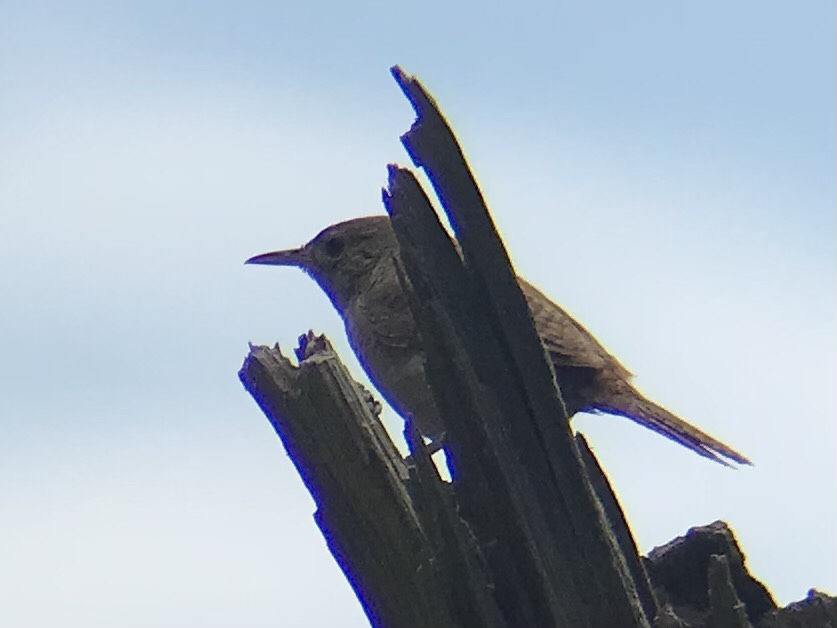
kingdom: Animalia
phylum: Chordata
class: Aves
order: Passeriformes
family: Troglodytidae
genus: Troglodytes
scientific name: Troglodytes aedon
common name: House wren
